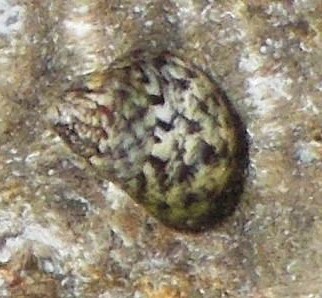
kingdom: Animalia
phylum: Mollusca
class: Gastropoda
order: Trochida
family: Trochidae
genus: Phorcus
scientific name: Phorcus turbinatus
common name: Turbinate monodont
